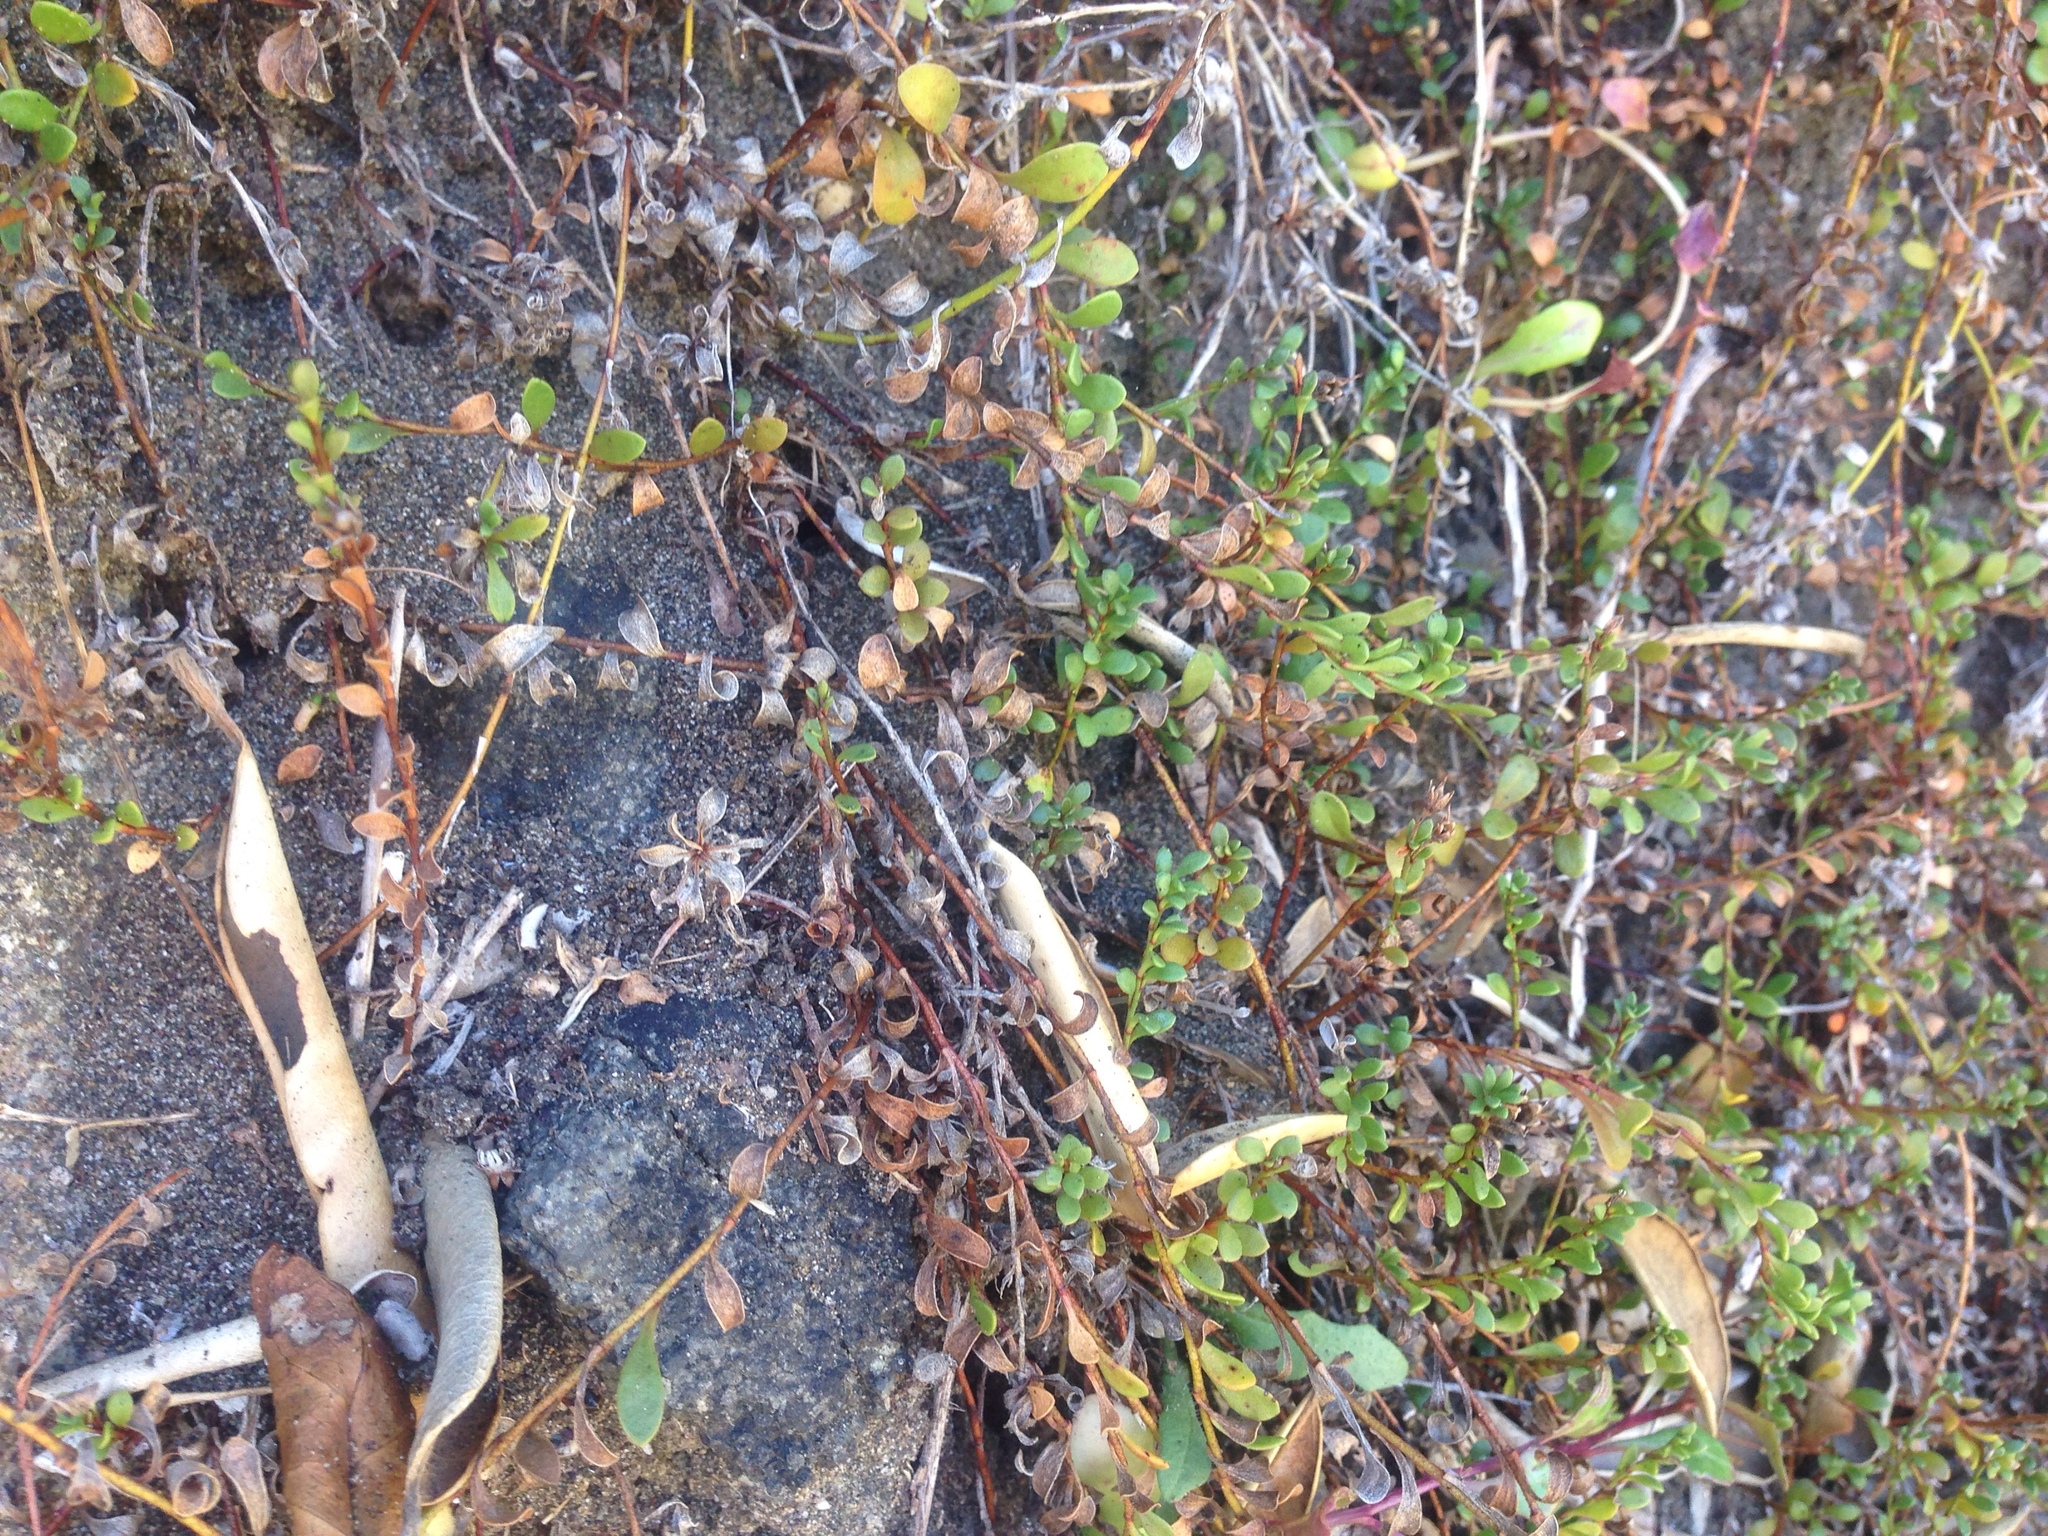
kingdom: Plantae
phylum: Tracheophyta
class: Magnoliopsida
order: Ericales
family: Primulaceae
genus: Samolus
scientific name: Samolus repens
